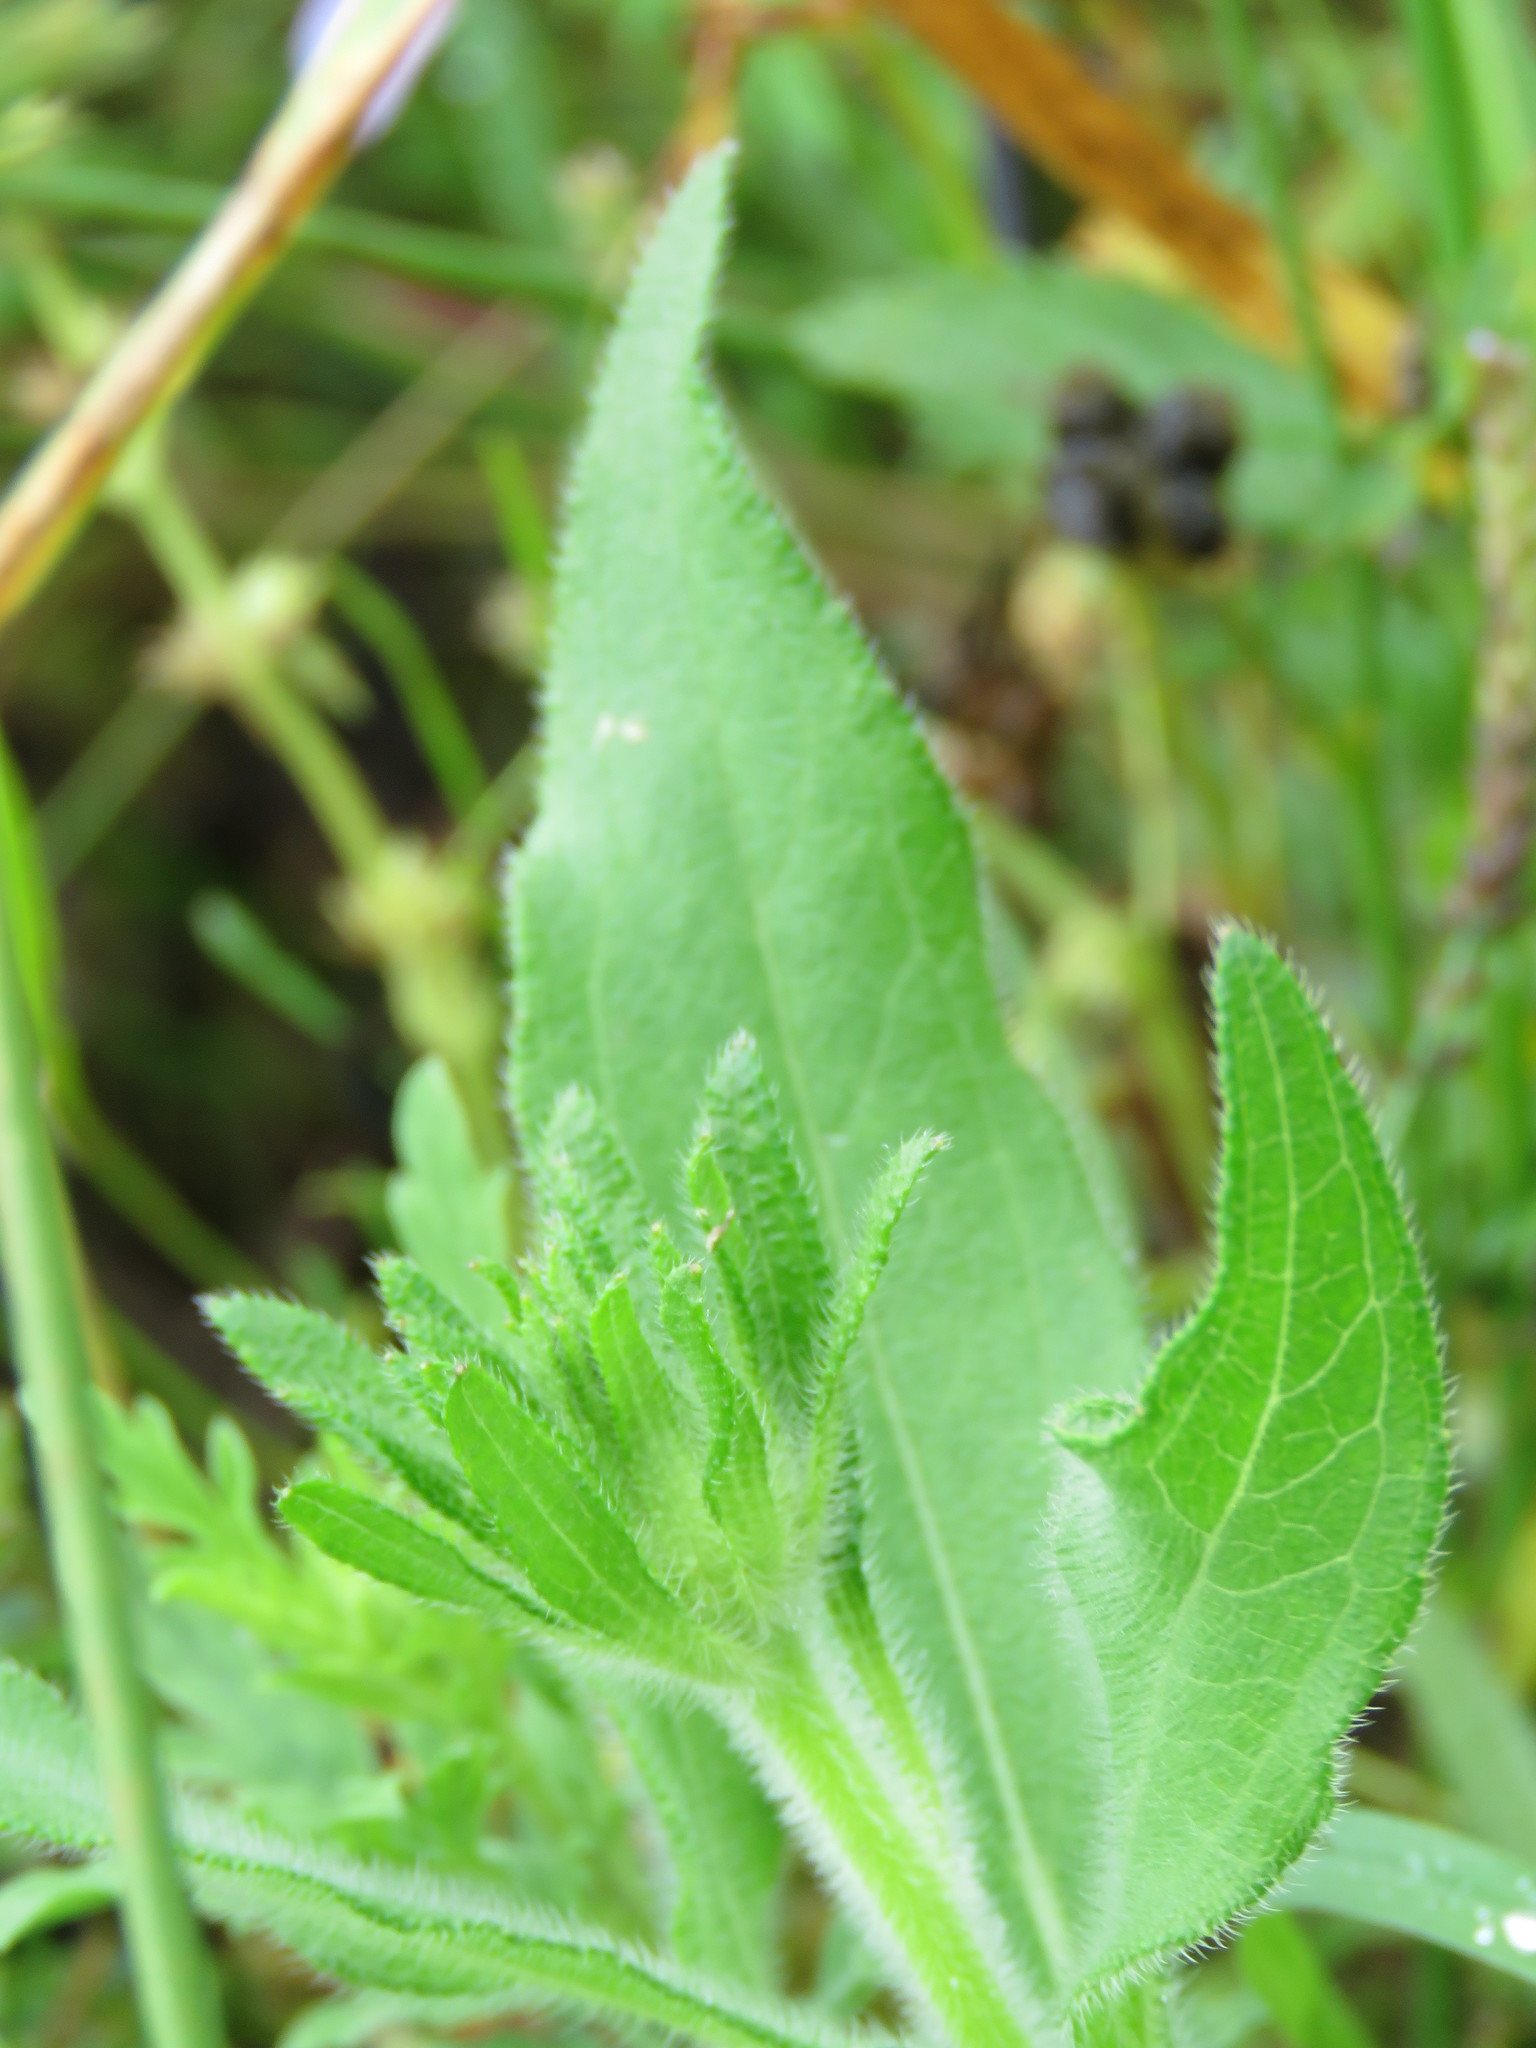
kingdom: Plantae
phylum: Tracheophyta
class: Magnoliopsida
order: Asterales
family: Asteraceae
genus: Rudbeckia
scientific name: Rudbeckia hirta
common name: Black-eyed-susan
